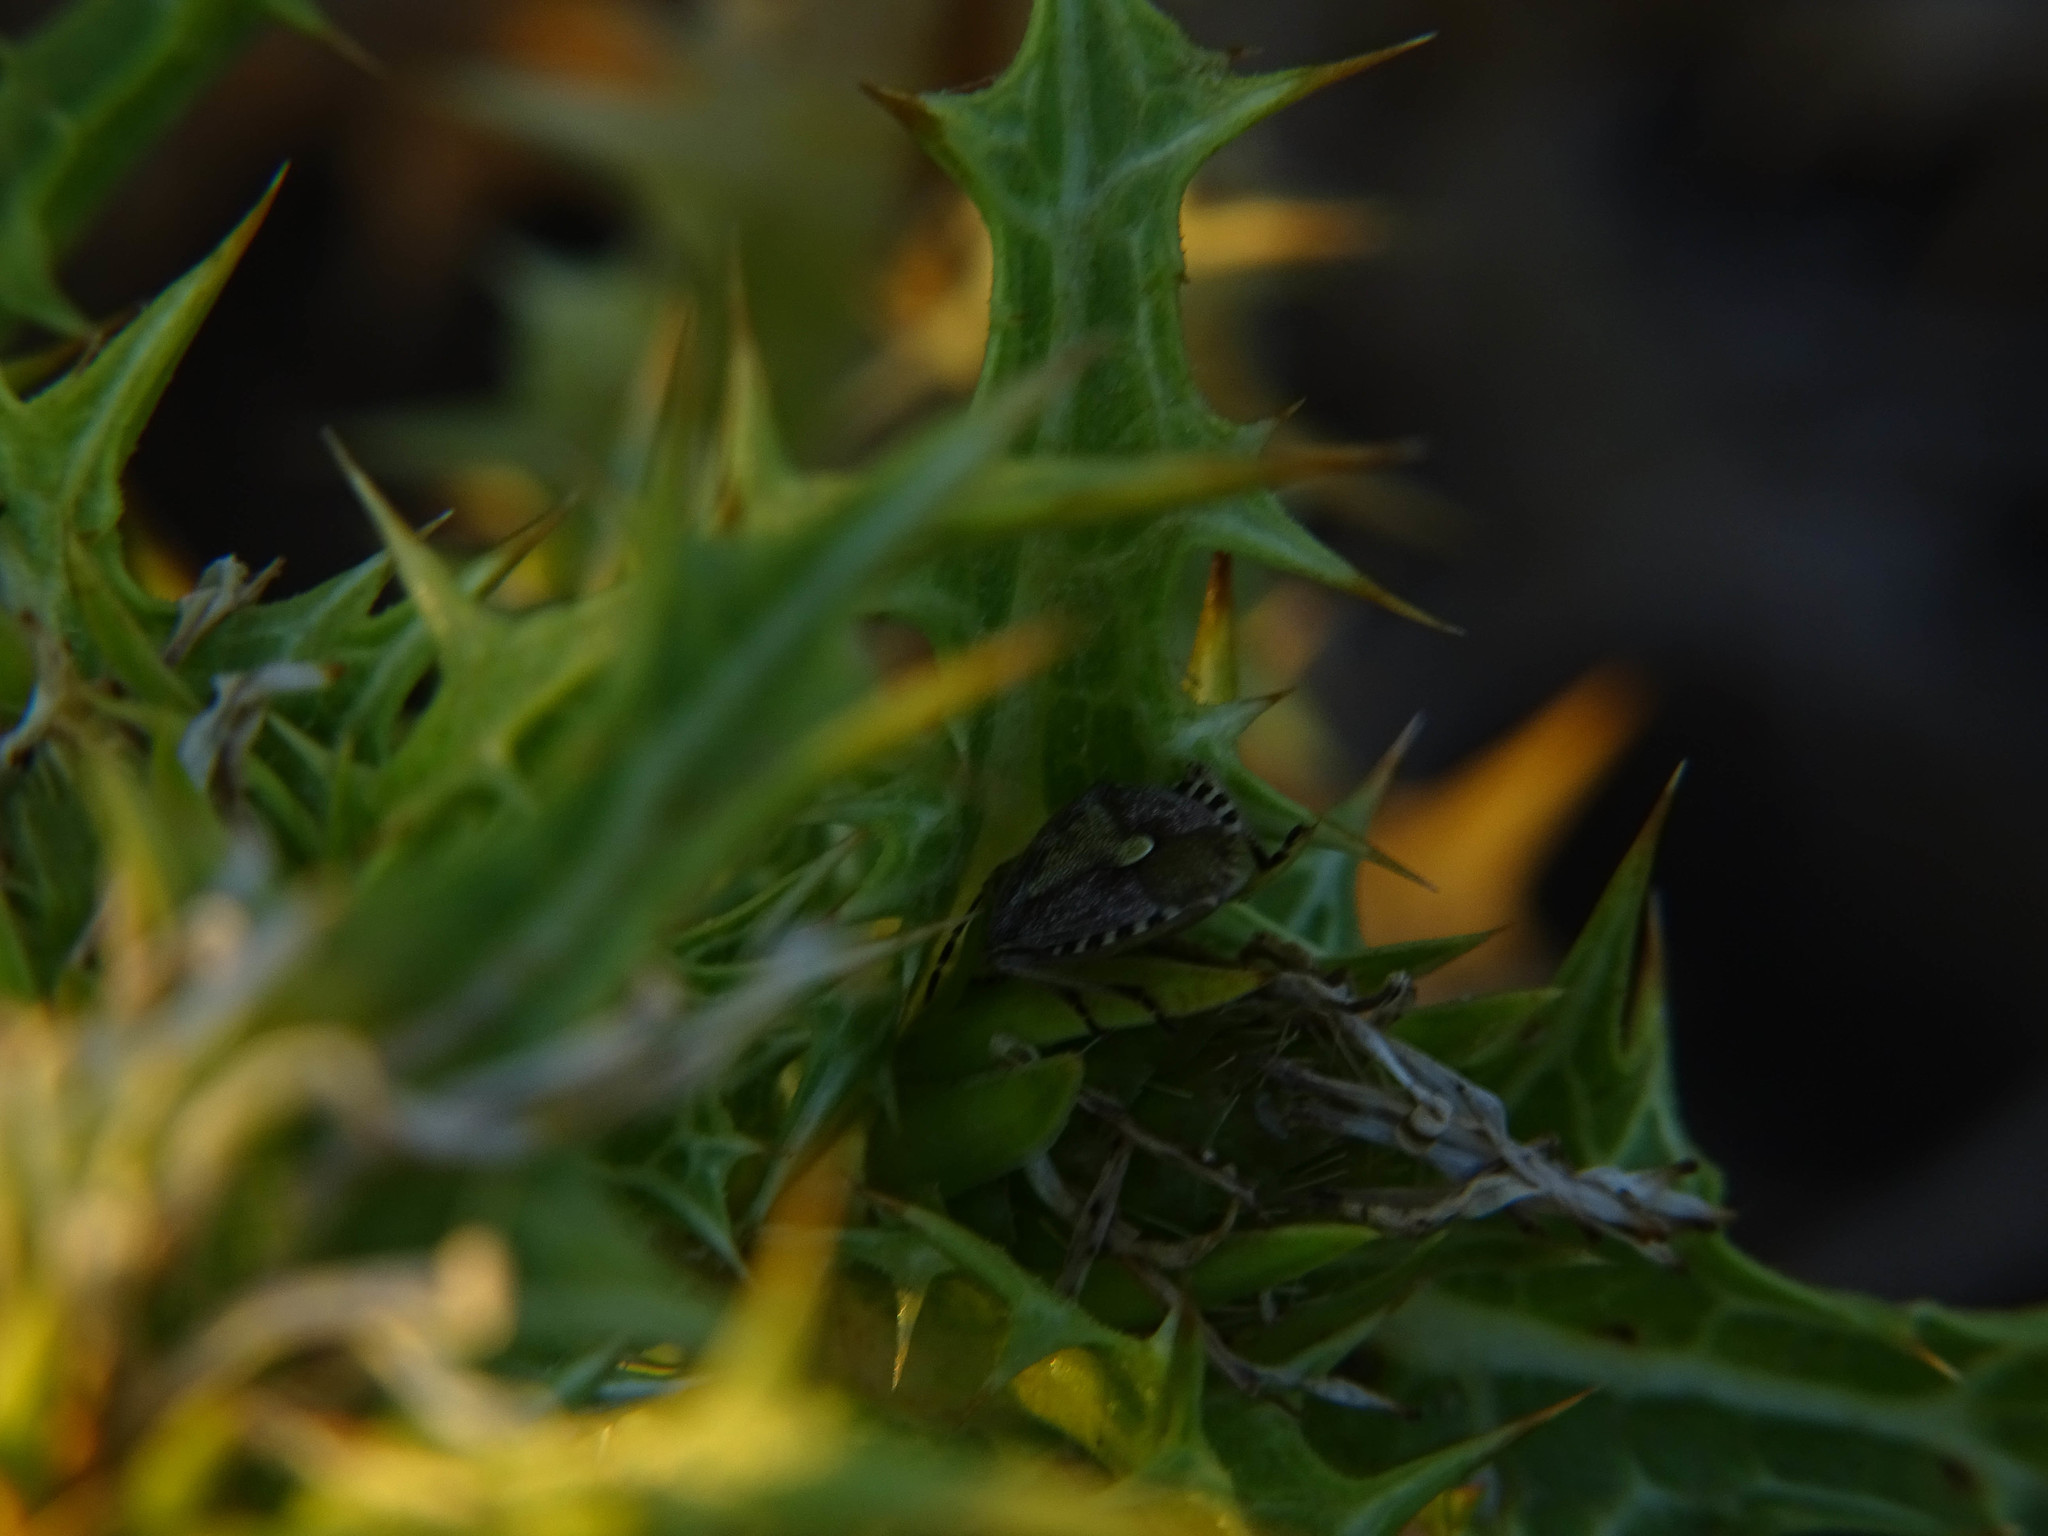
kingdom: Animalia
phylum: Arthropoda
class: Insecta
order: Hemiptera
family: Pentatomidae
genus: Dolycoris
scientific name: Dolycoris baccarum
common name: Sloe bug
